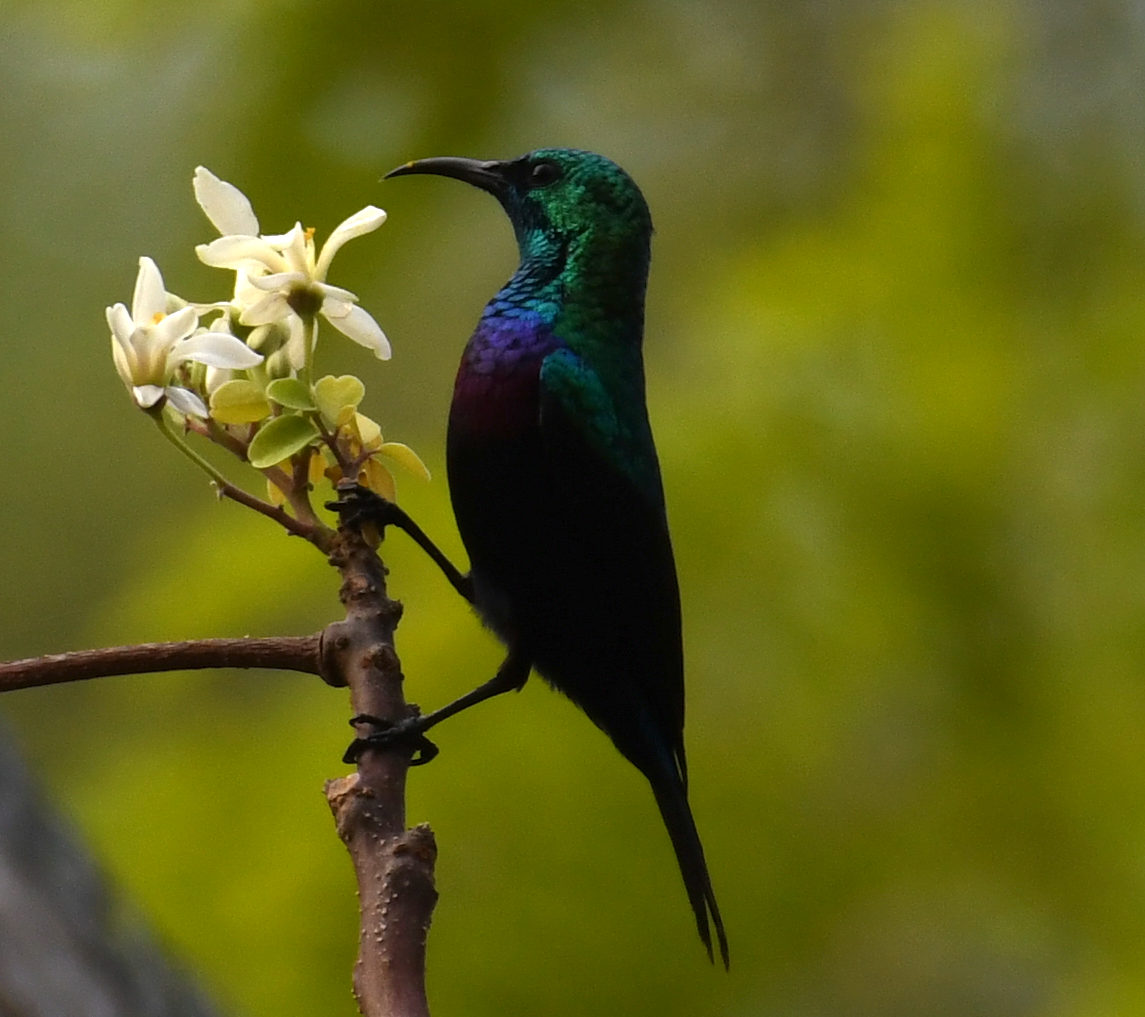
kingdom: Animalia
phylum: Chordata
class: Aves
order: Passeriformes
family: Nectariniidae
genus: Cinnyris
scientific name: Cinnyris mariquensis
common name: Marico sunbird
